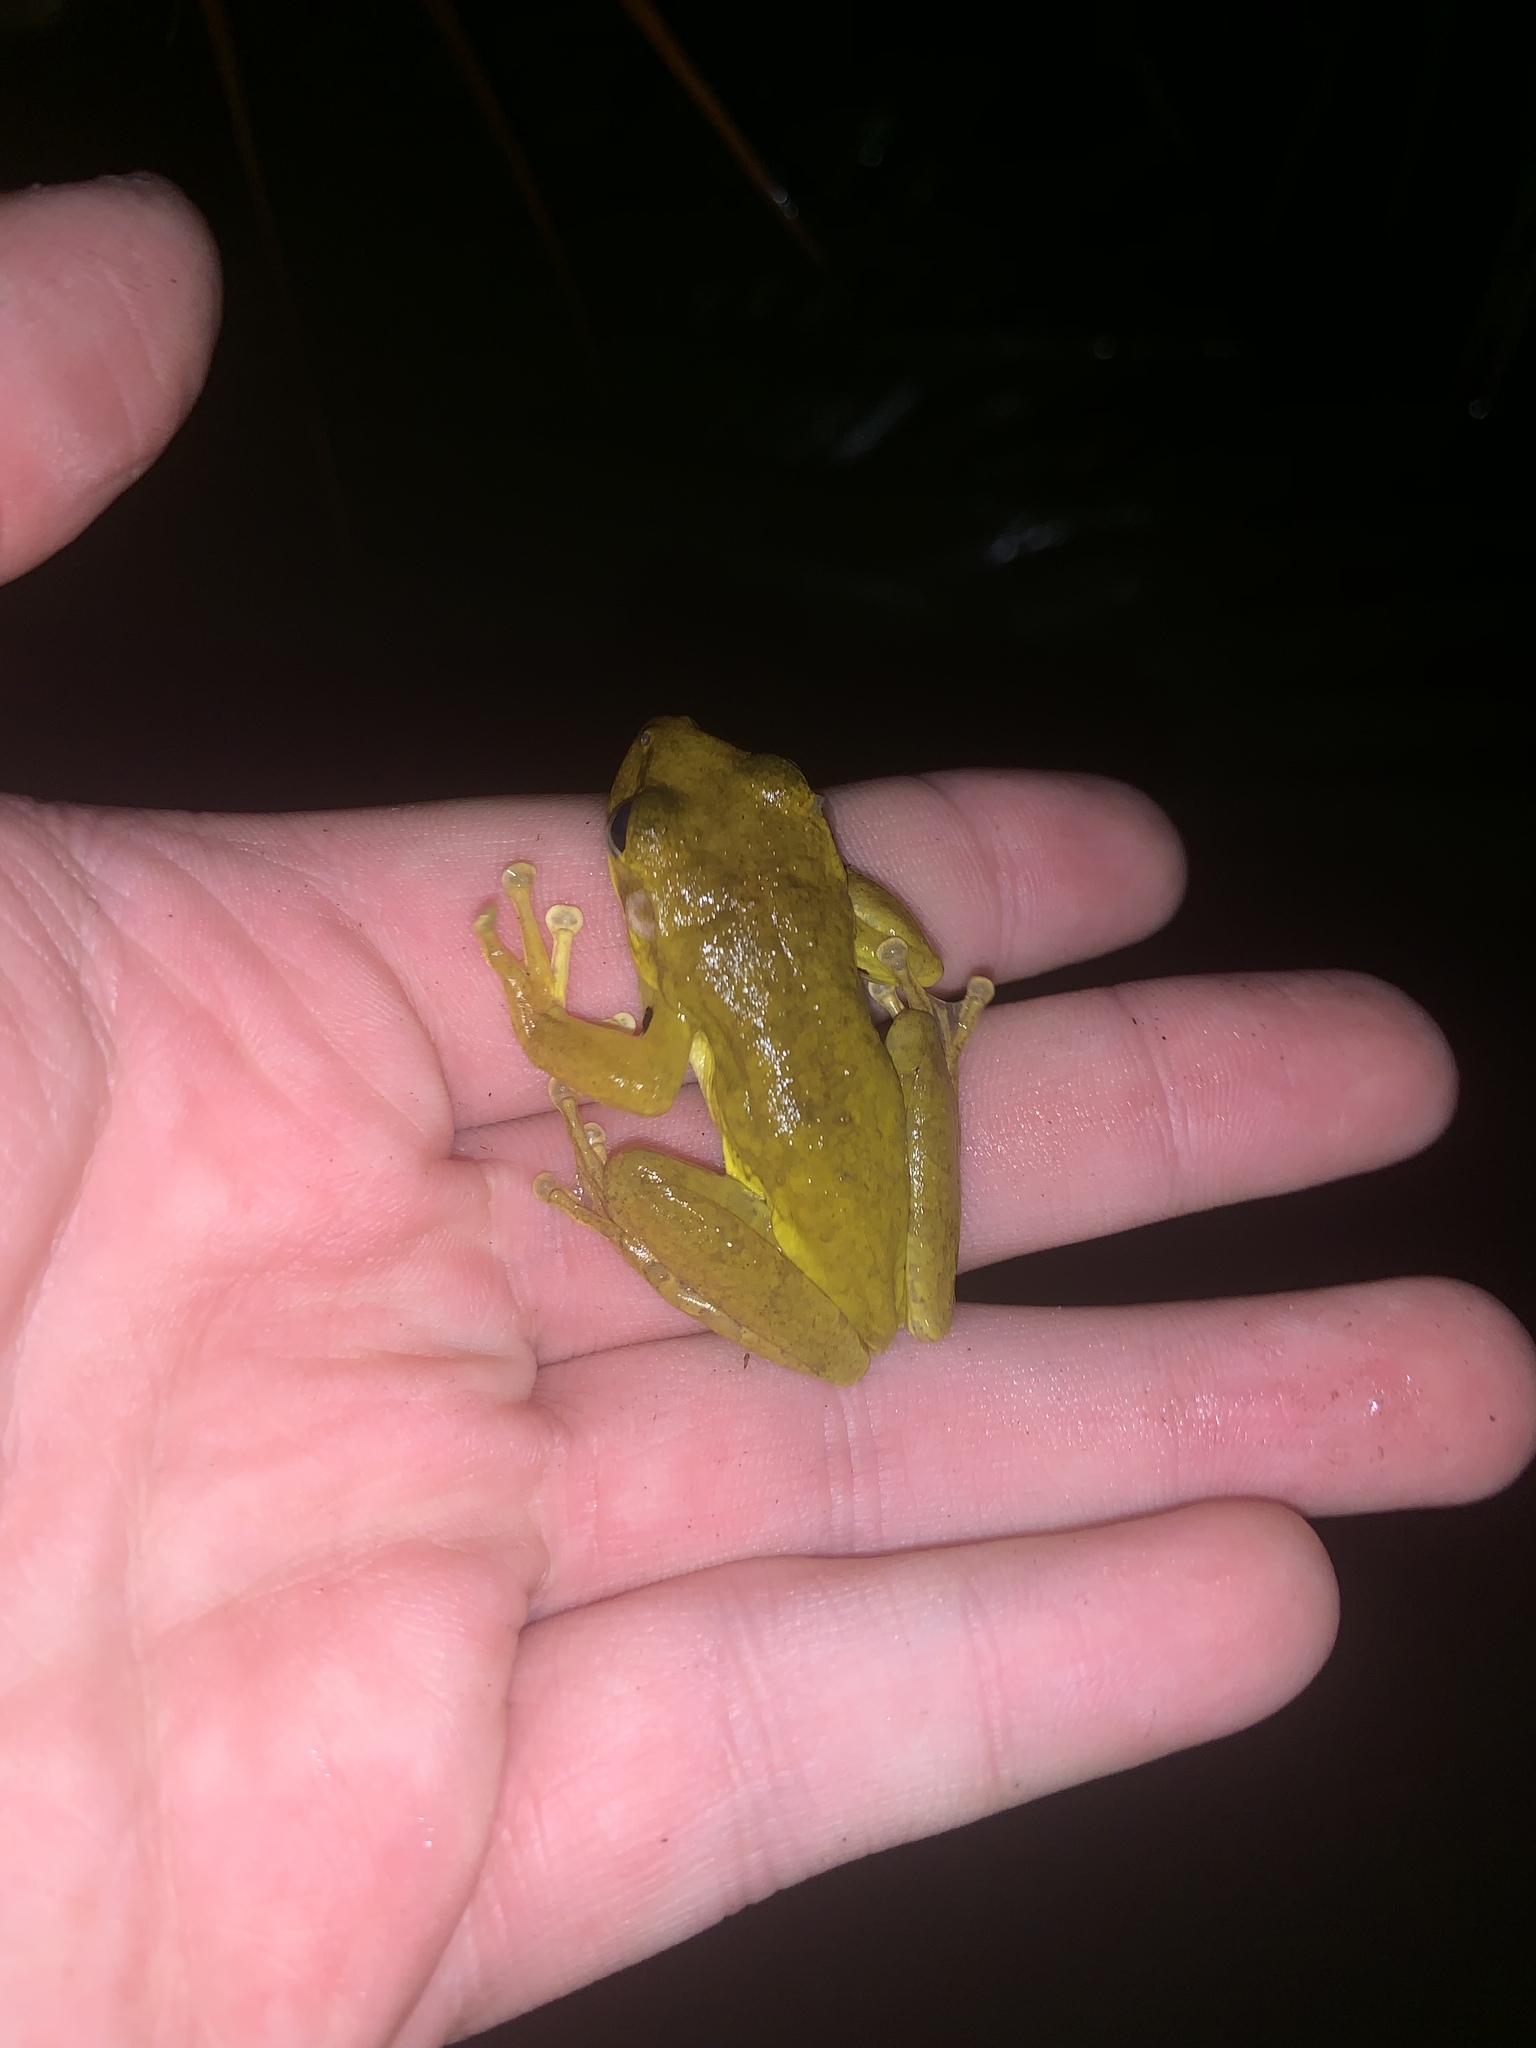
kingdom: Animalia
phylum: Chordata
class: Amphibia
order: Anura
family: Hylidae
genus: Osteopilus
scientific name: Osteopilus septentrionalis
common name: Cuban treefrog
